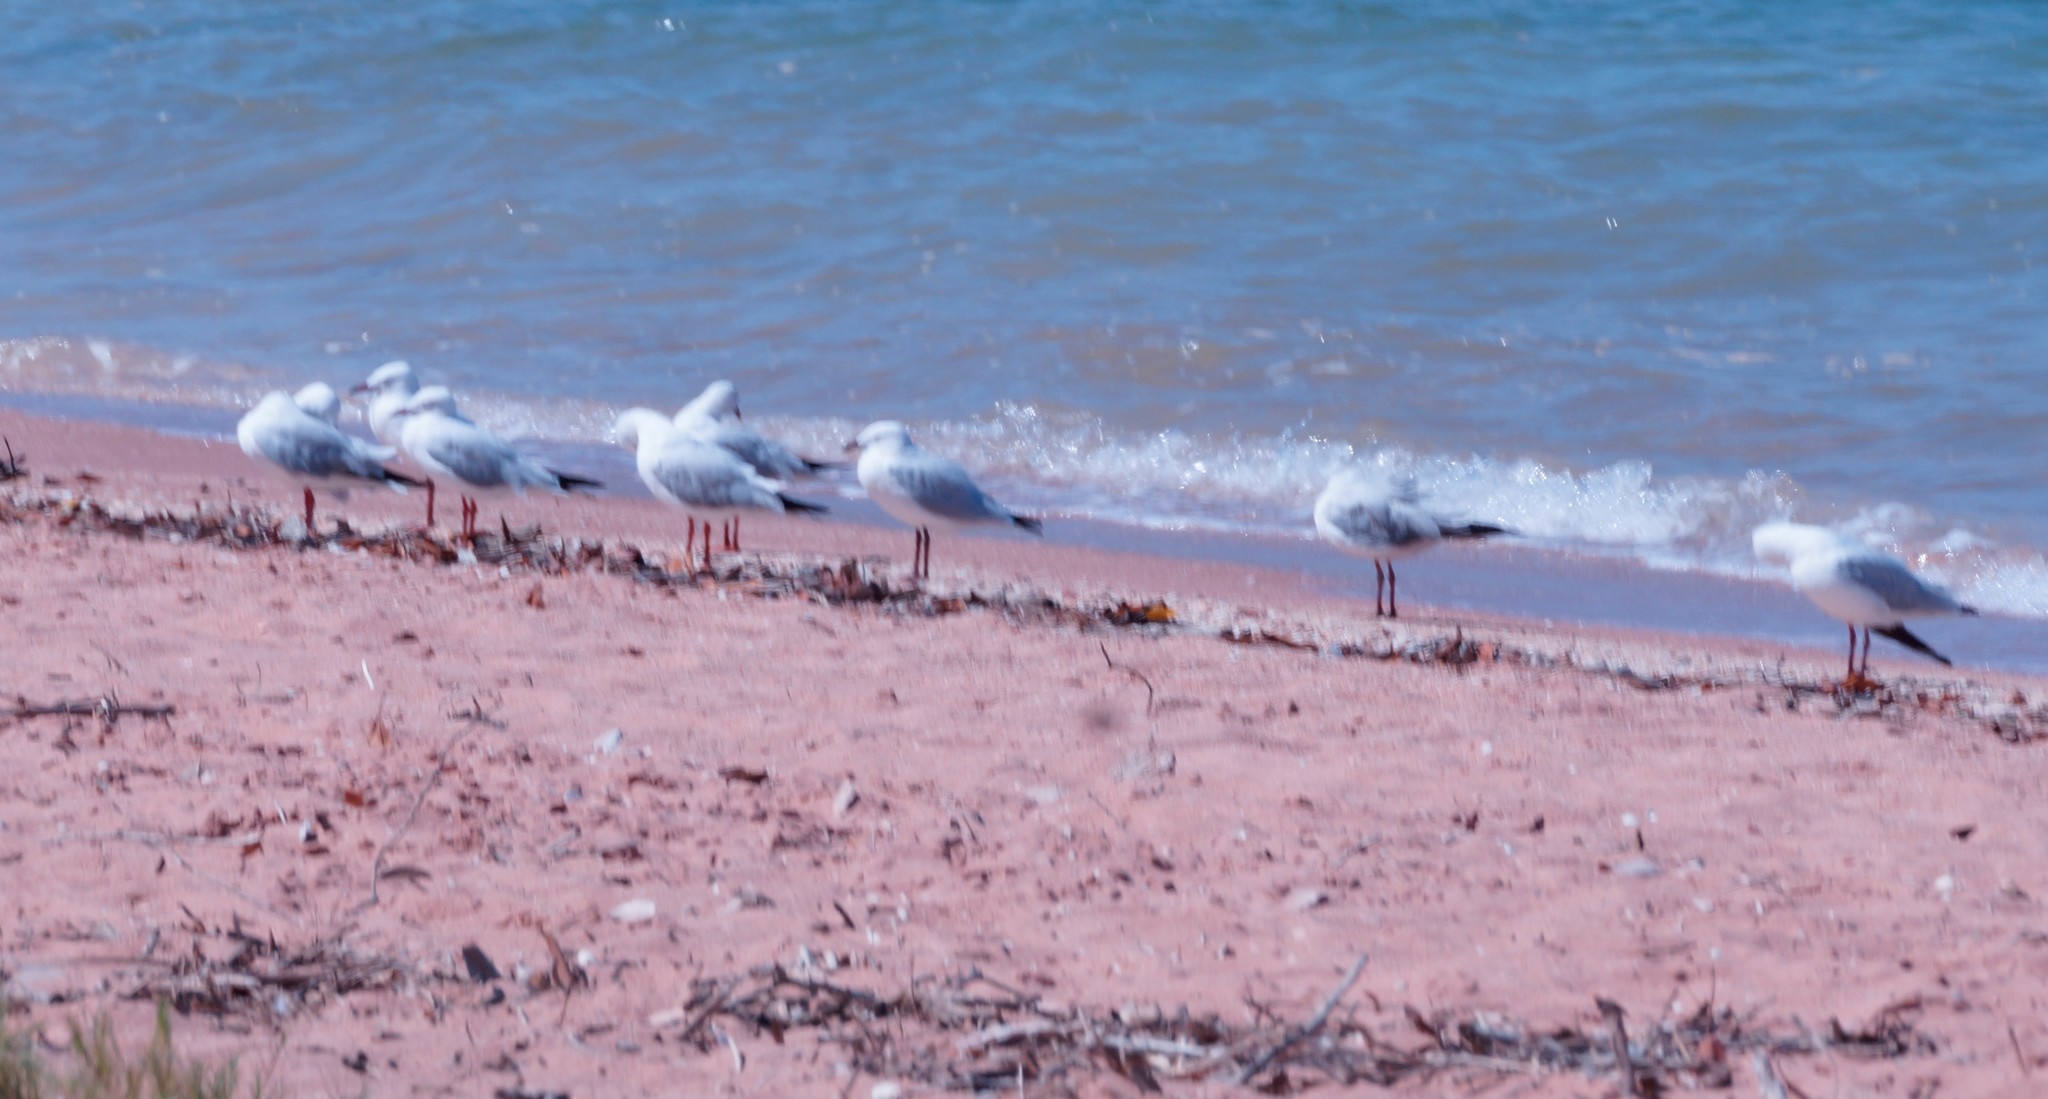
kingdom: Animalia
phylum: Chordata
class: Aves
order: Charadriiformes
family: Laridae
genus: Chroicocephalus
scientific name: Chroicocephalus novaehollandiae
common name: Silver gull
